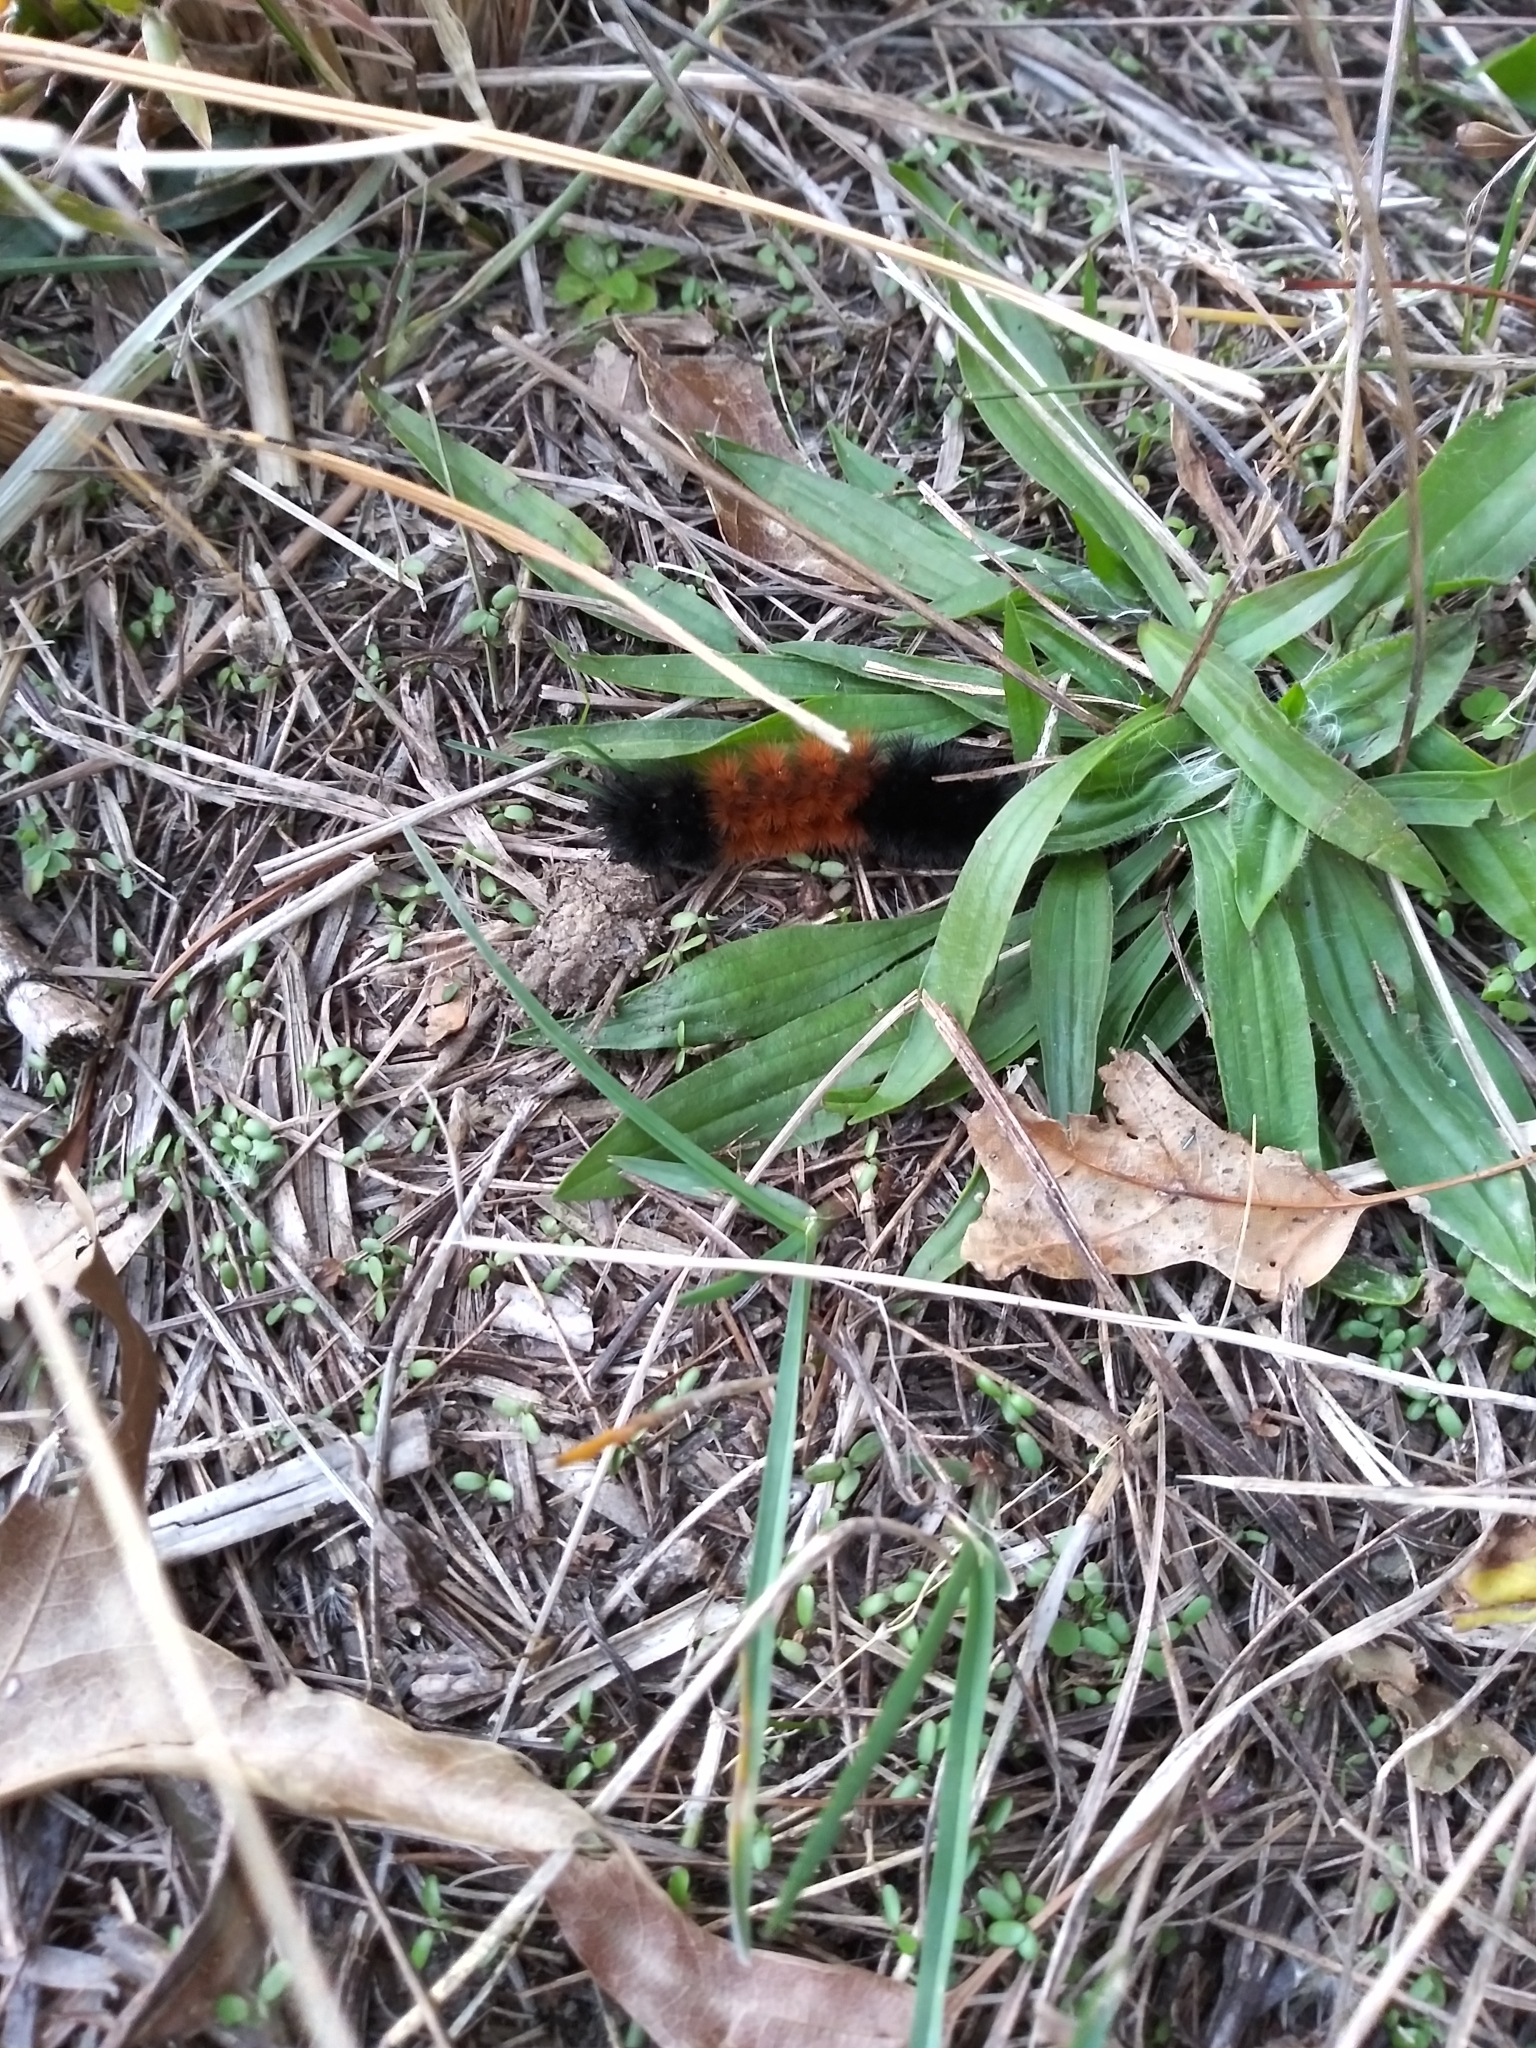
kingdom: Animalia
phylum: Arthropoda
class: Insecta
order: Lepidoptera
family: Erebidae
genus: Pyrrharctia
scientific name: Pyrrharctia isabella
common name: Isabella tiger moth
